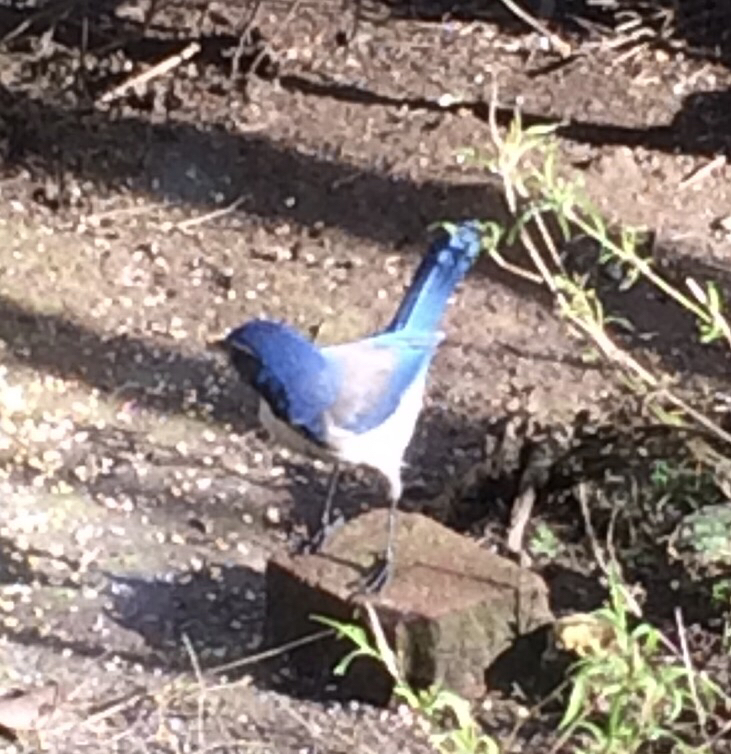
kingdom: Animalia
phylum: Chordata
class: Aves
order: Passeriformes
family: Corvidae
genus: Aphelocoma
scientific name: Aphelocoma californica
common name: California scrub-jay
